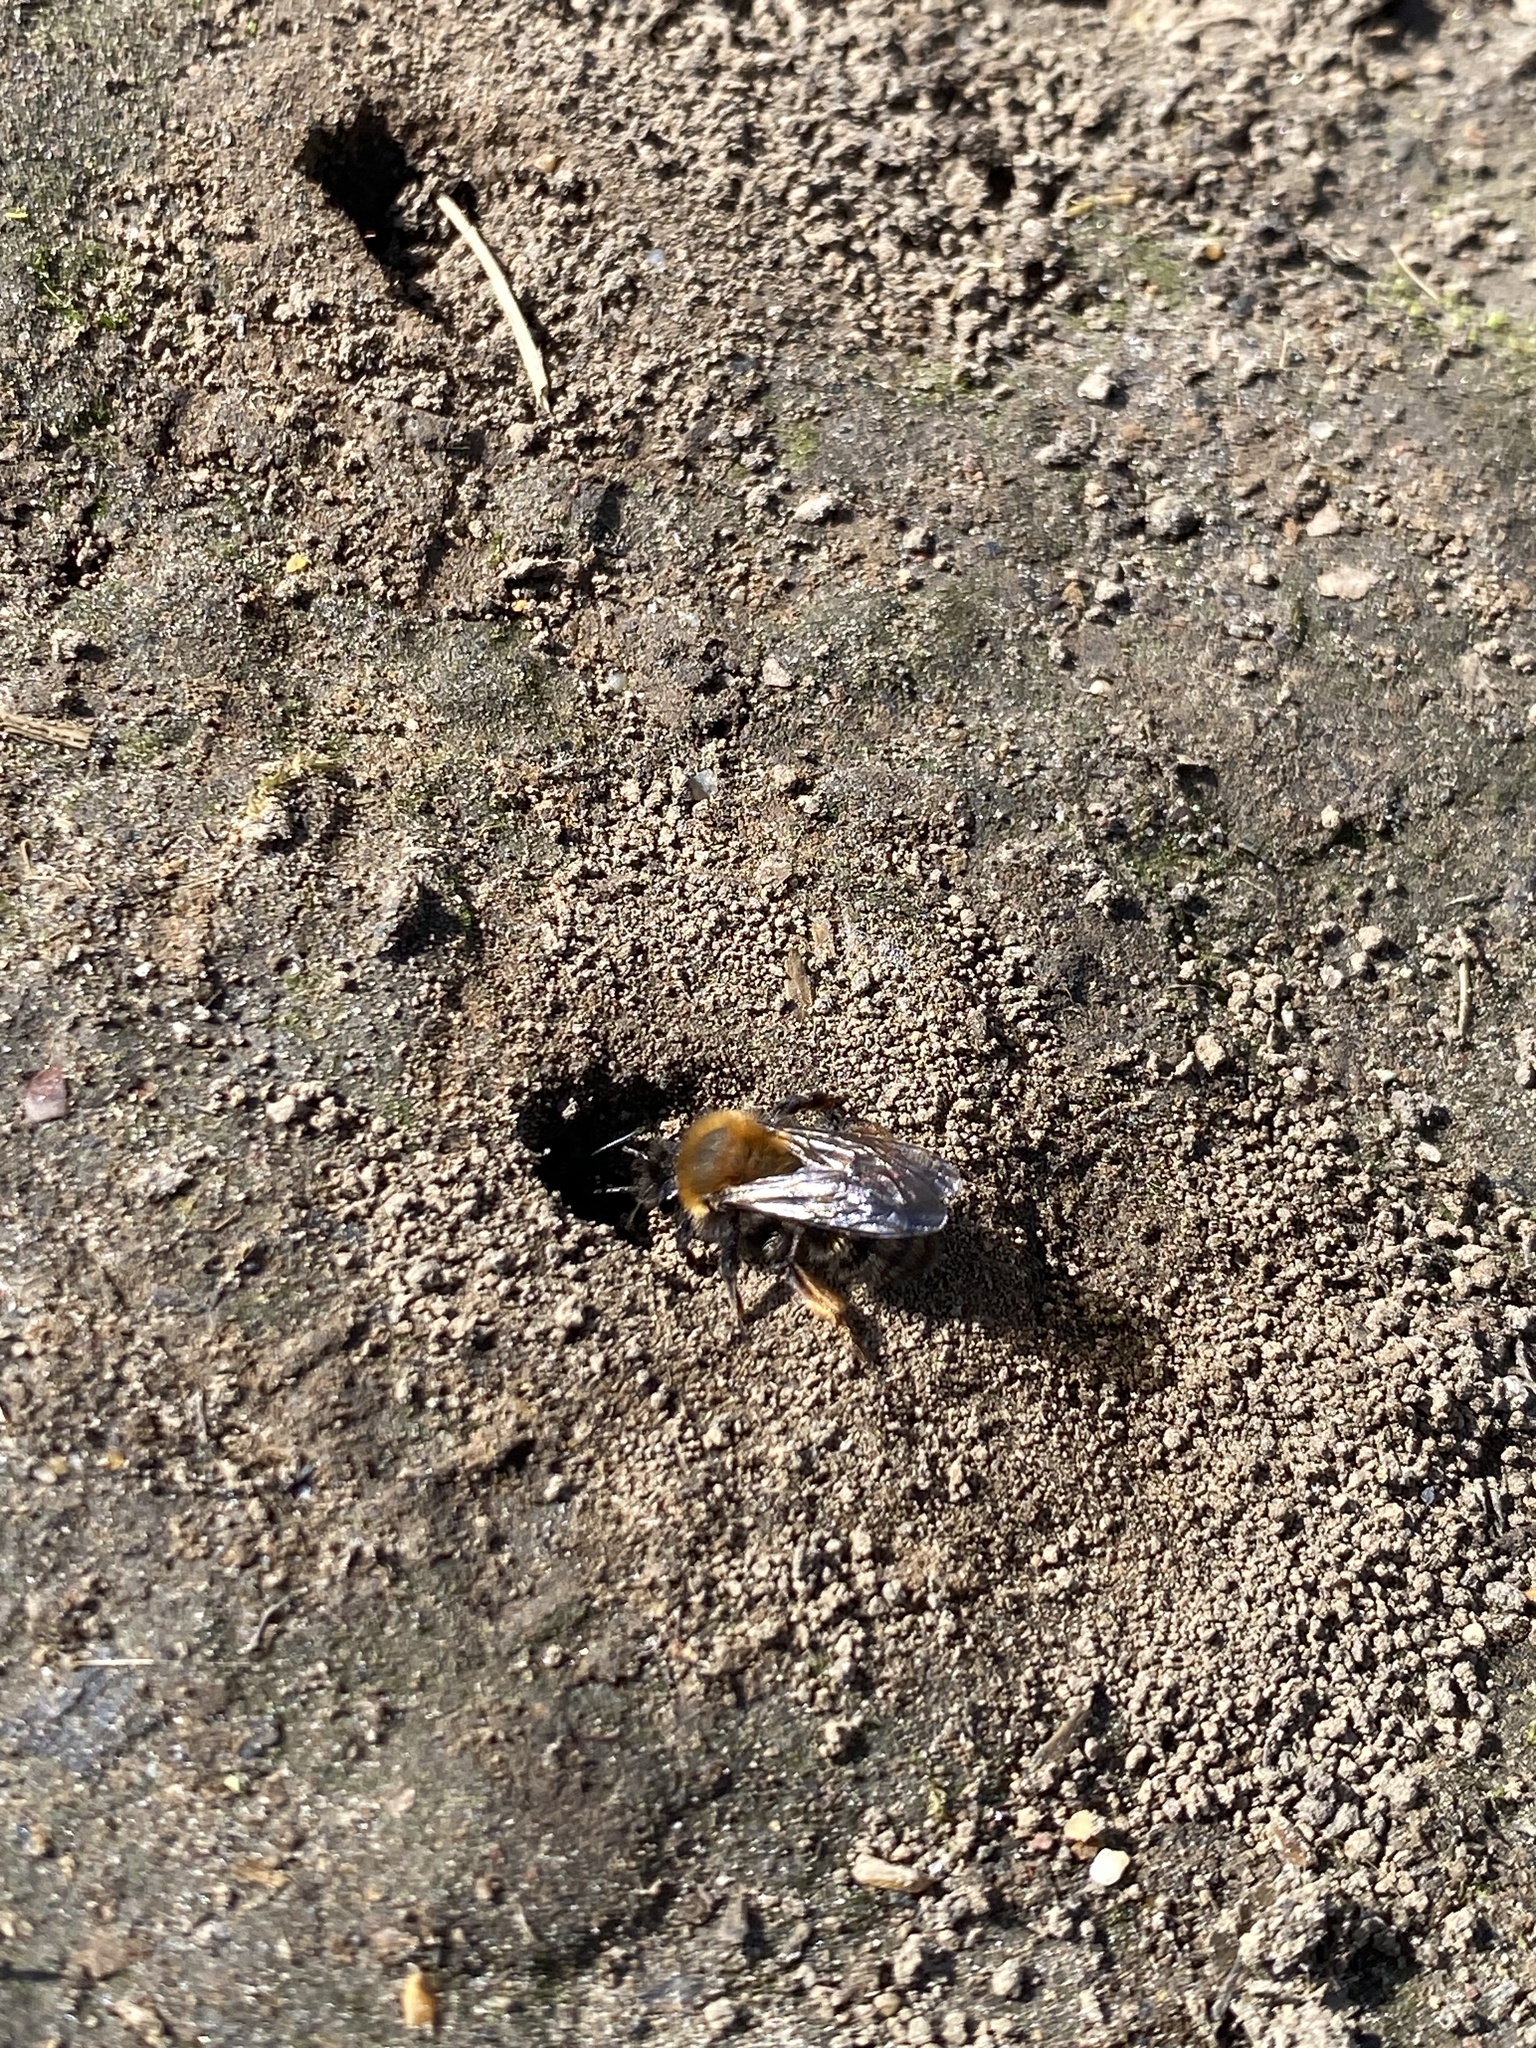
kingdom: Animalia
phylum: Arthropoda
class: Insecta
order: Hymenoptera
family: Andrenidae
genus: Andrena
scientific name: Andrena clarkella
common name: Clarke's mining bee
